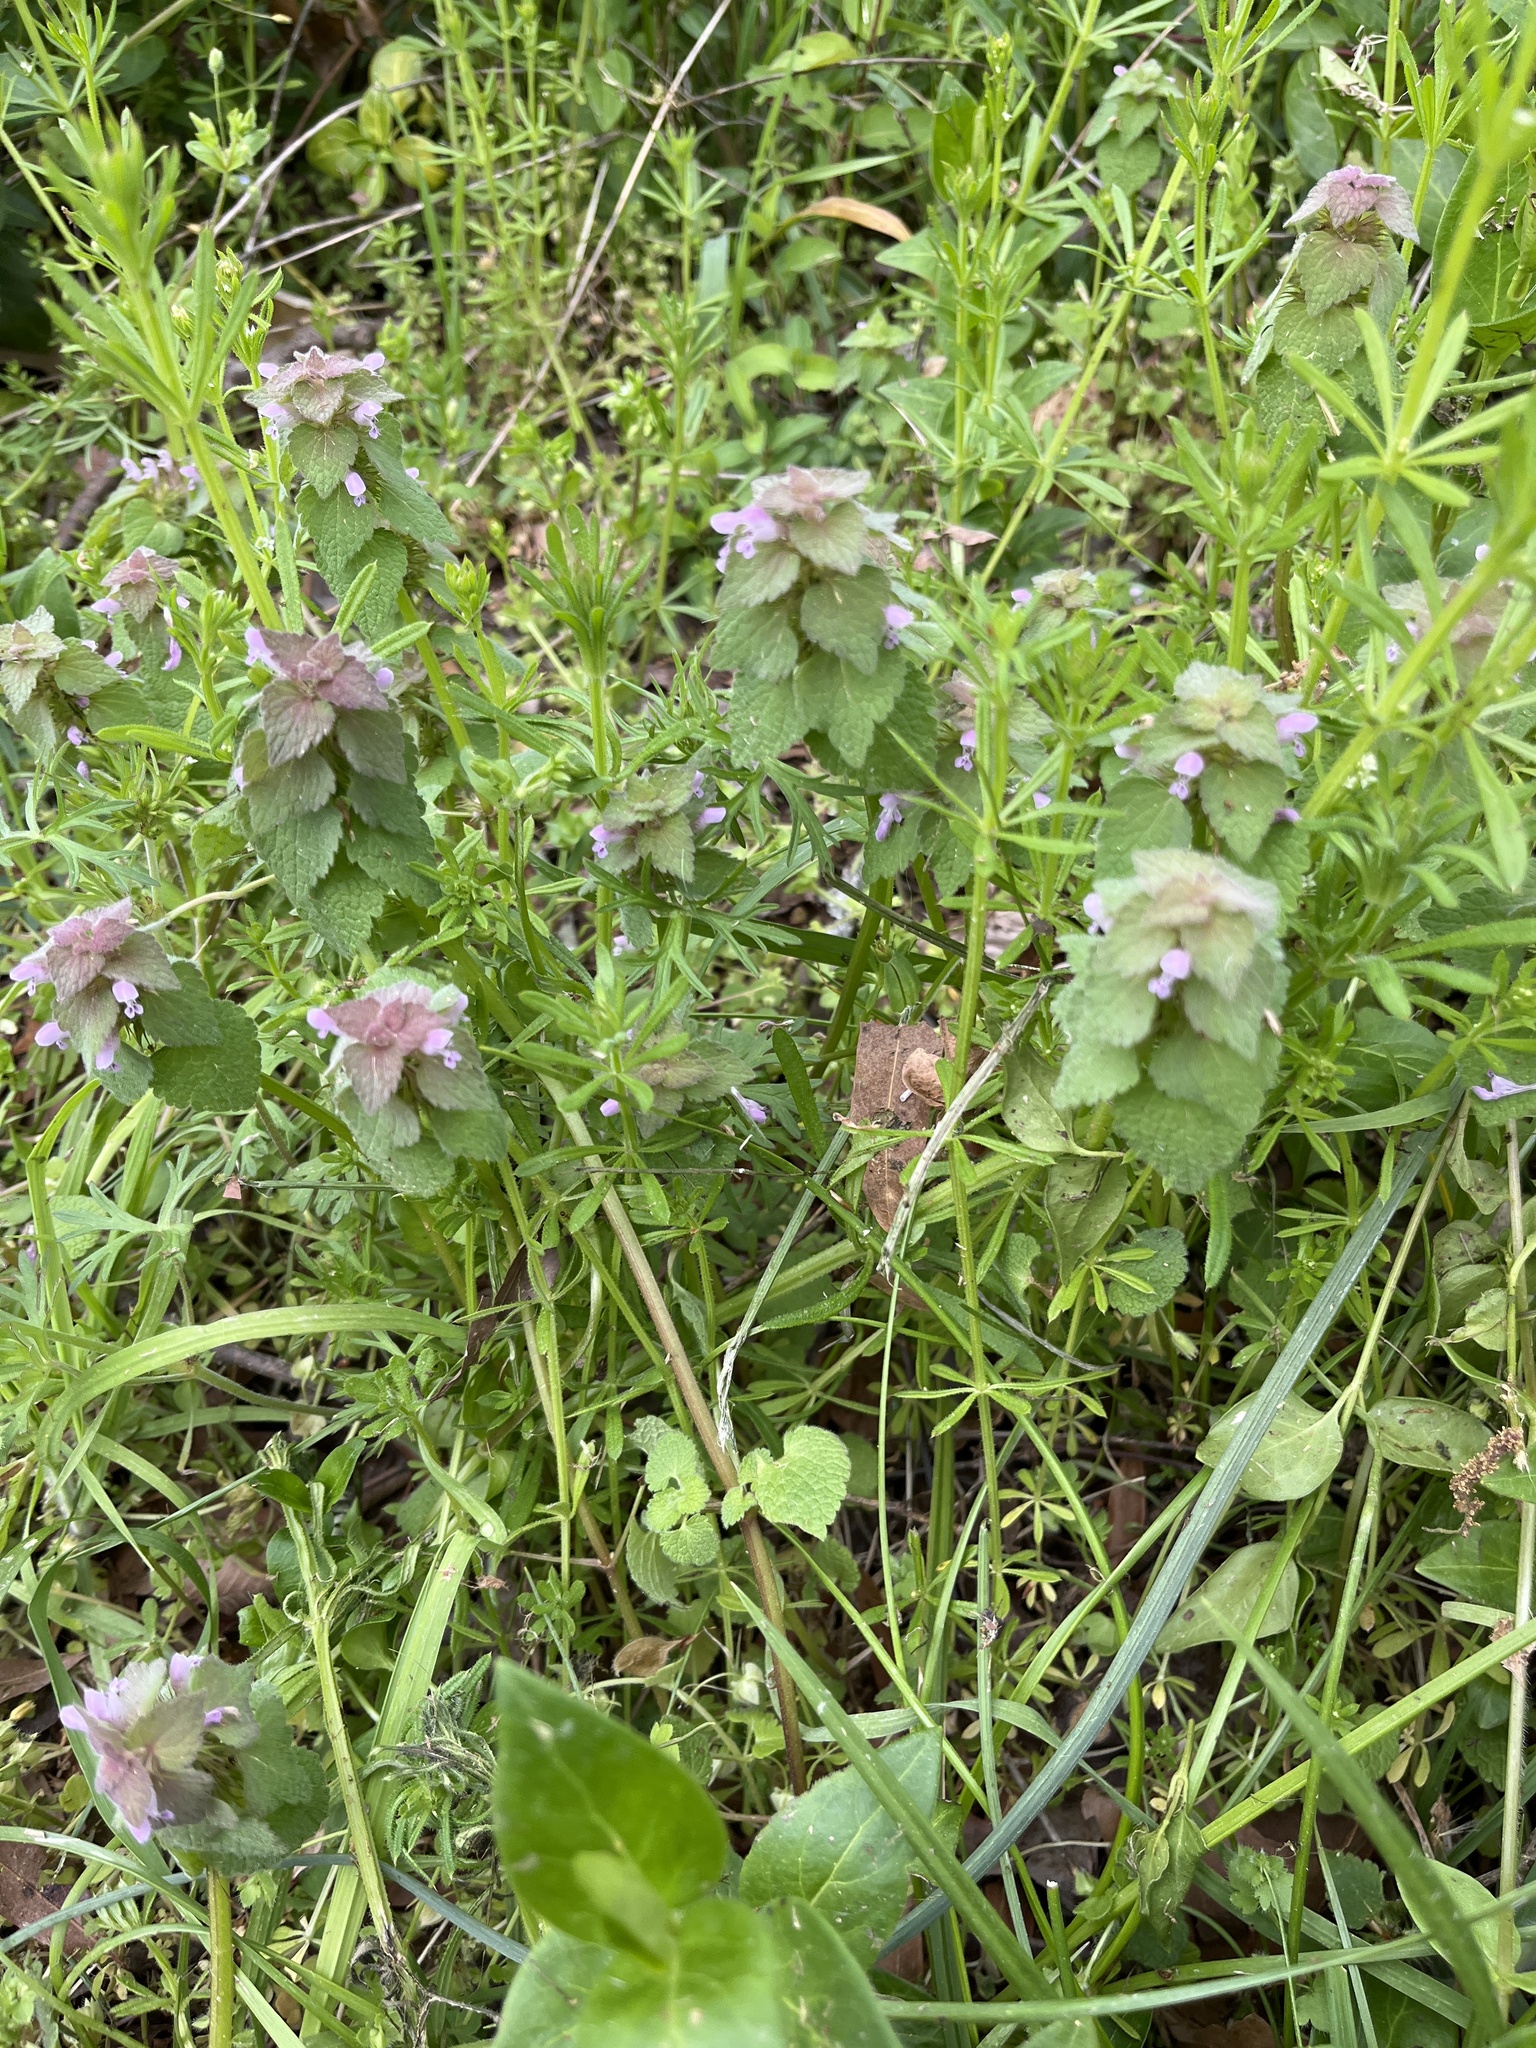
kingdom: Plantae
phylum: Tracheophyta
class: Magnoliopsida
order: Lamiales
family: Lamiaceae
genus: Lamium
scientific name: Lamium purpureum
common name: Red dead-nettle
